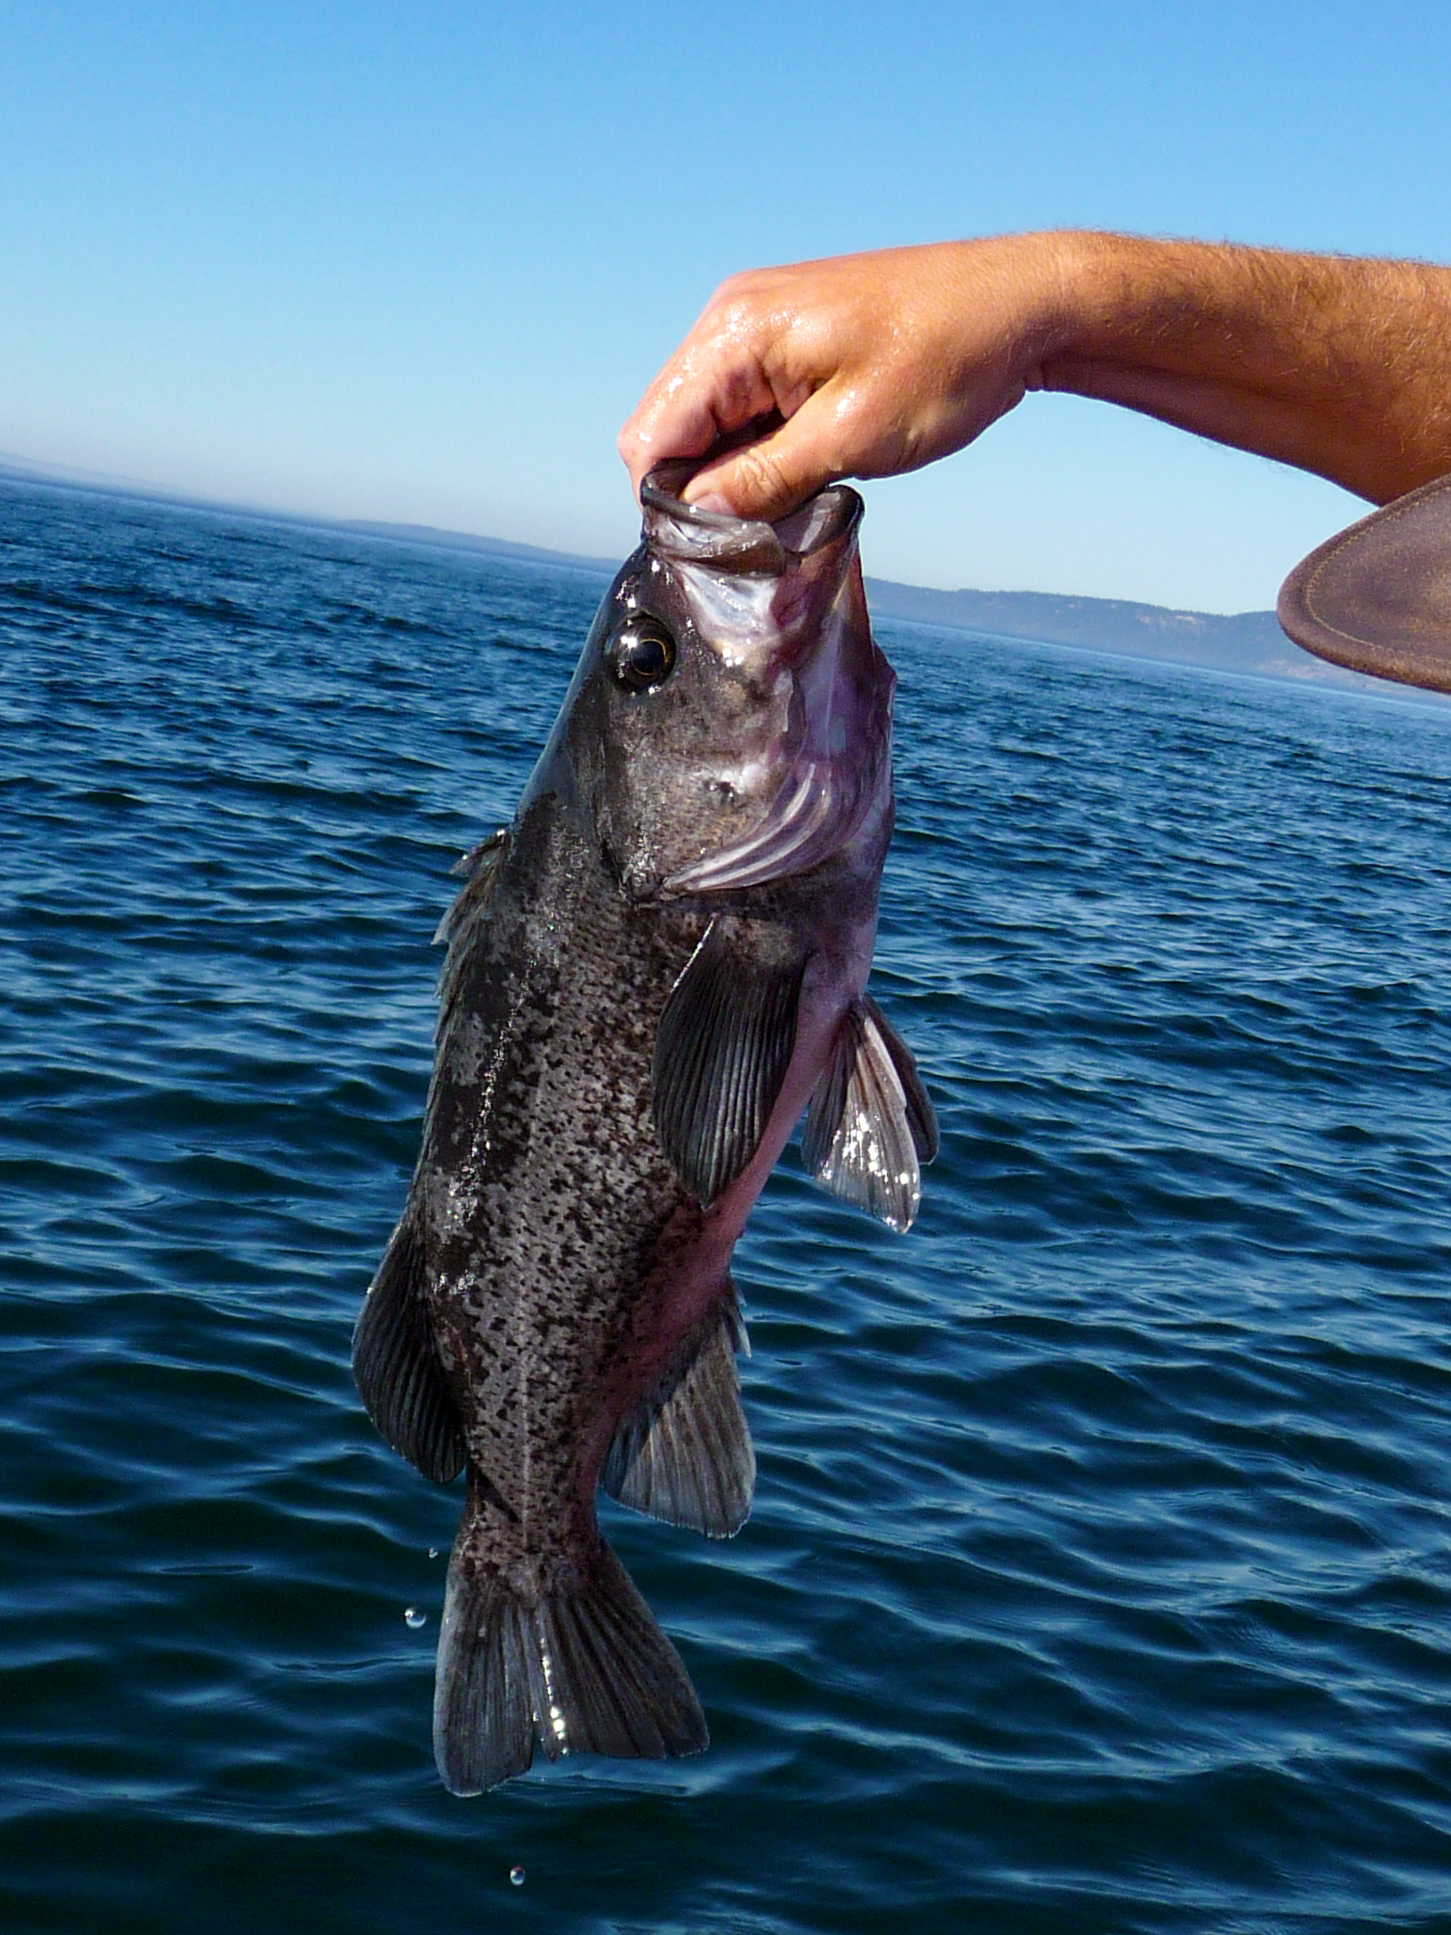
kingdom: Animalia
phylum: Chordata
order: Scorpaeniformes
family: Sebastidae
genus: Sebastes
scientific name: Sebastes melanops
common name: Black rockfish
